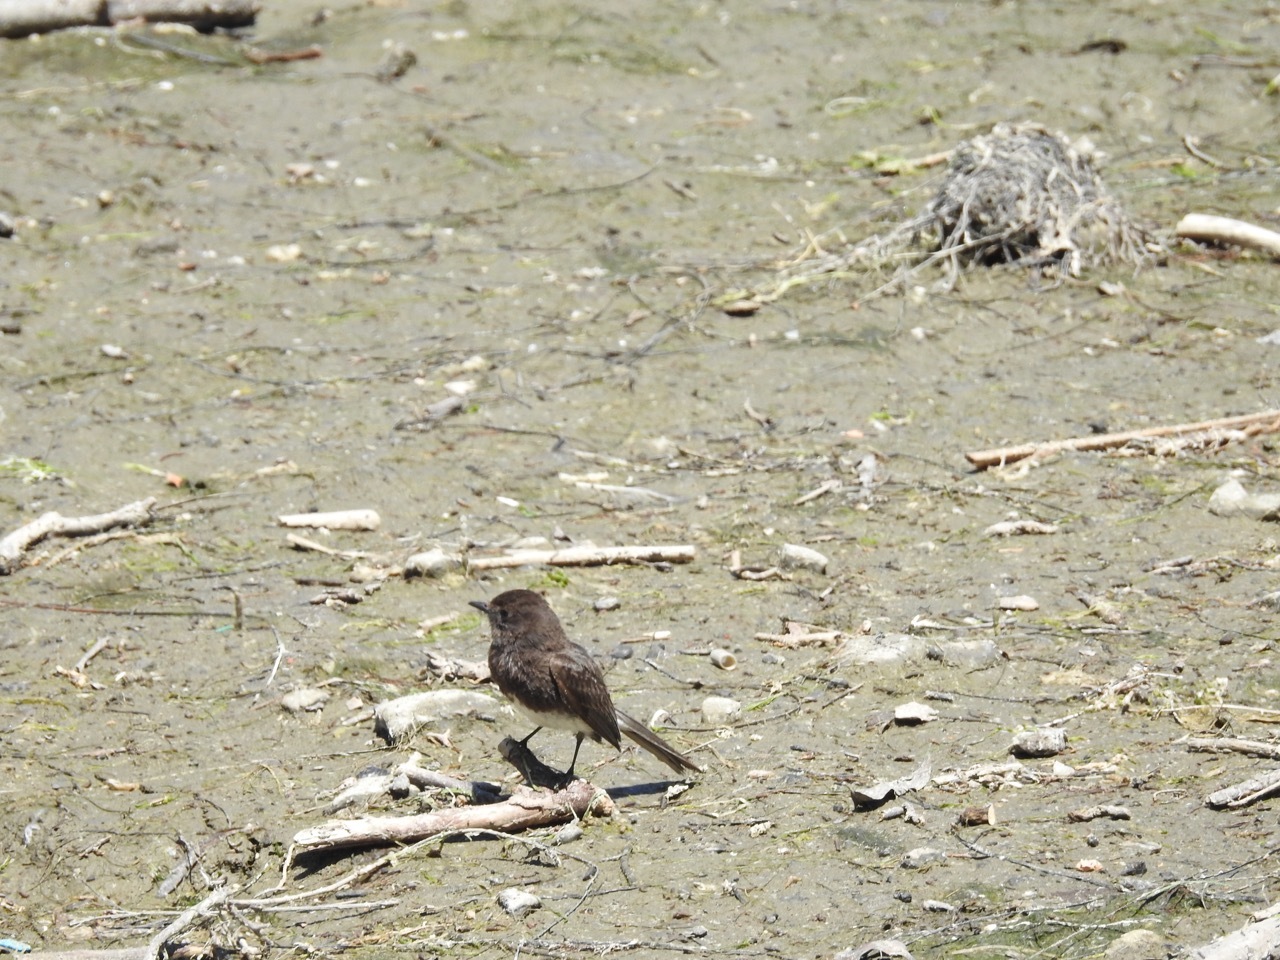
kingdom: Animalia
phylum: Chordata
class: Aves
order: Passeriformes
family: Tyrannidae
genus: Sayornis
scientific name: Sayornis nigricans
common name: Black phoebe
